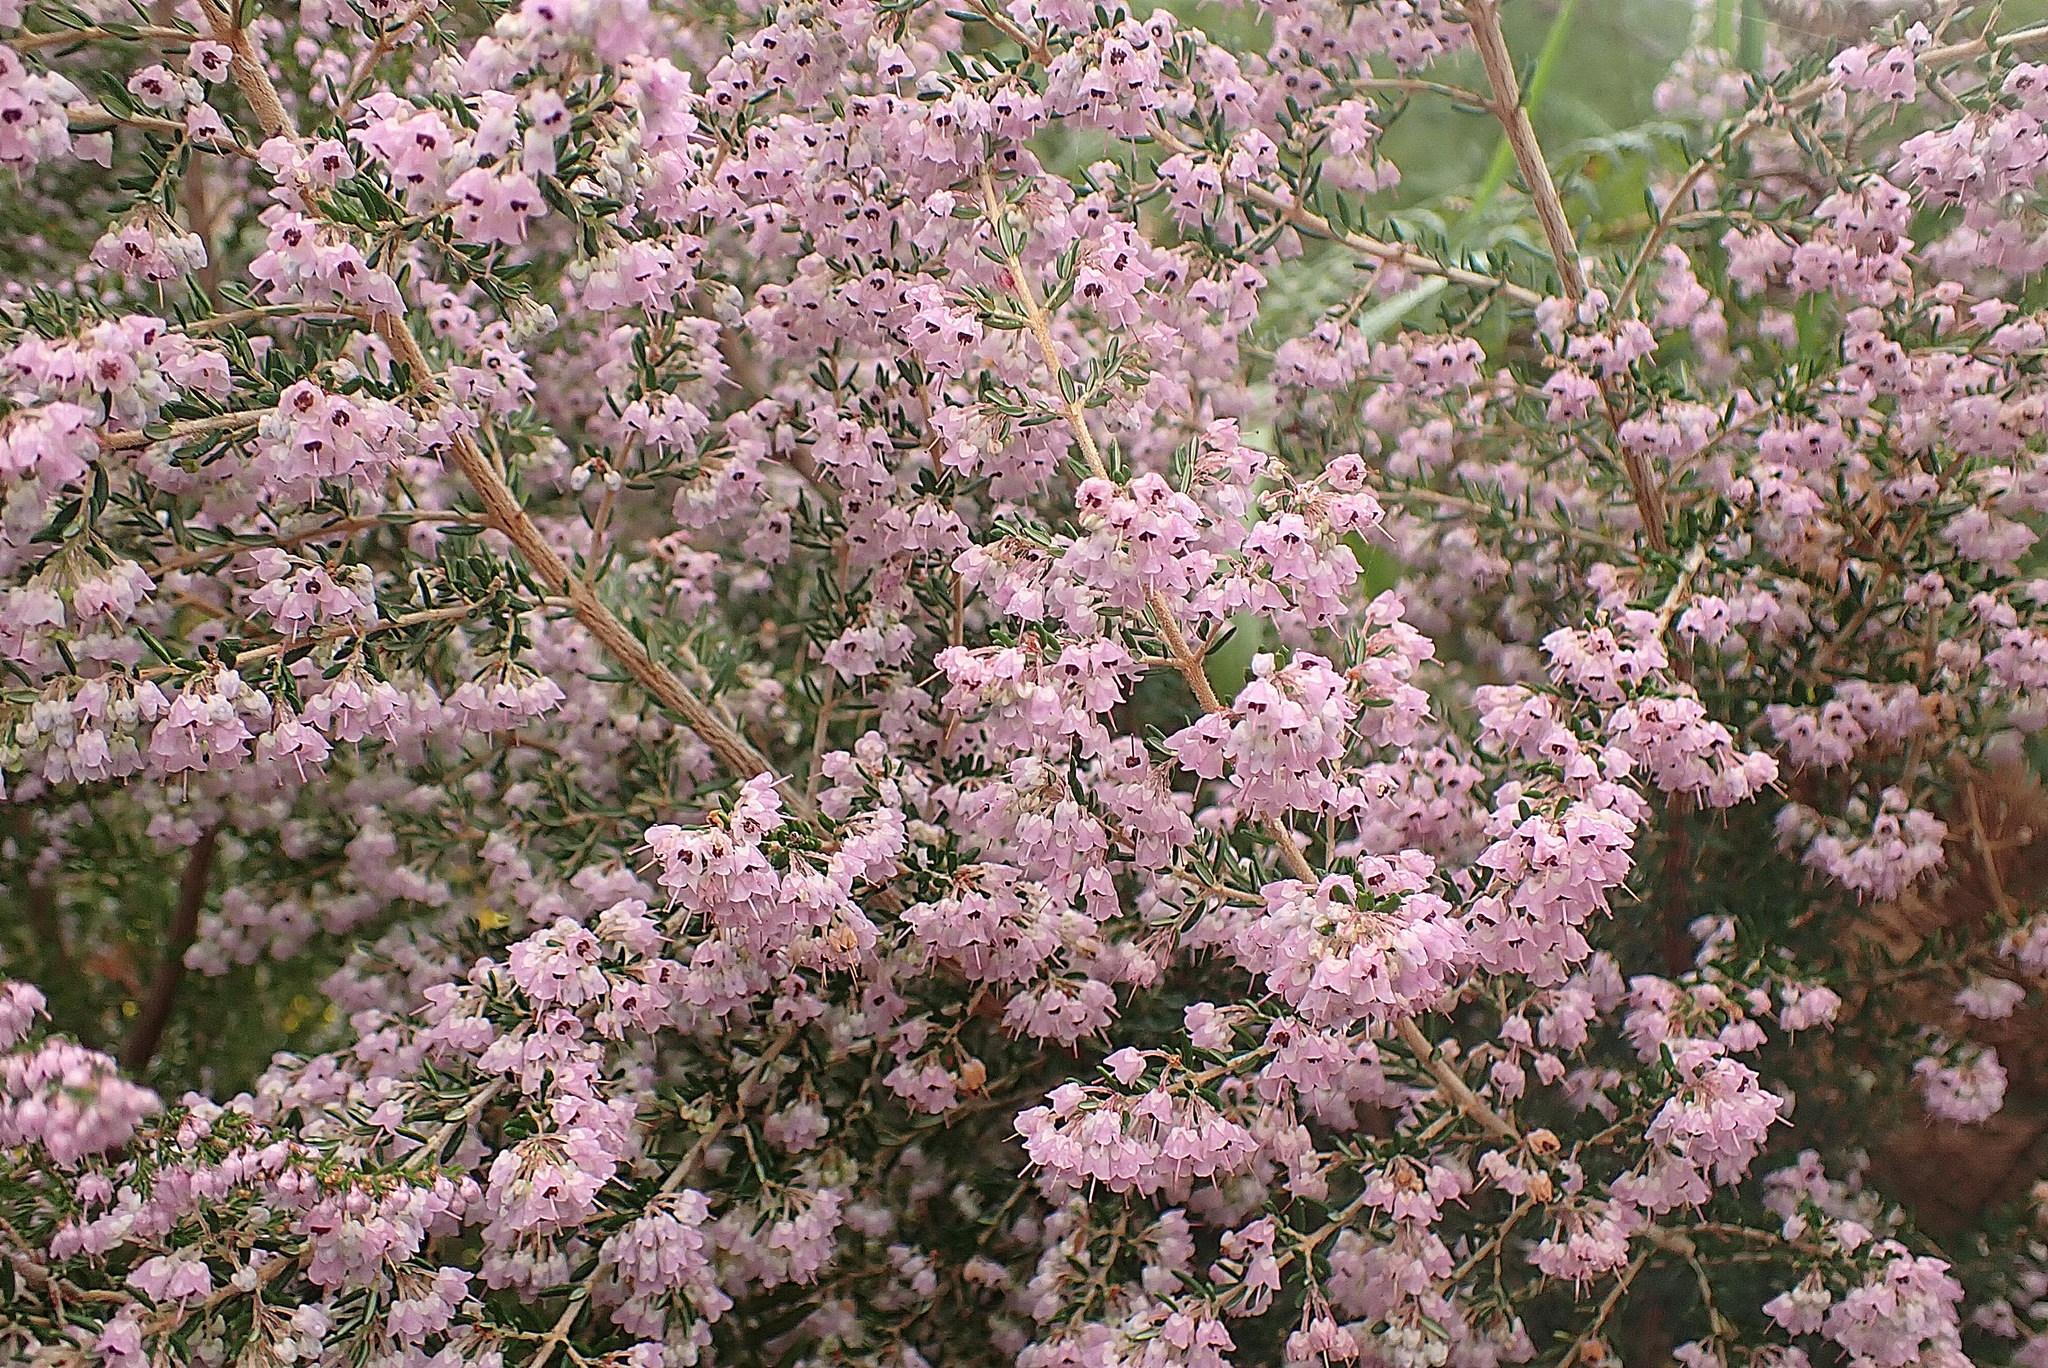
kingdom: Plantae
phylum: Tracheophyta
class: Magnoliopsida
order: Ericales
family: Ericaceae
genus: Erica
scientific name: Erica canaliculata
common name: Hairy grey heather
